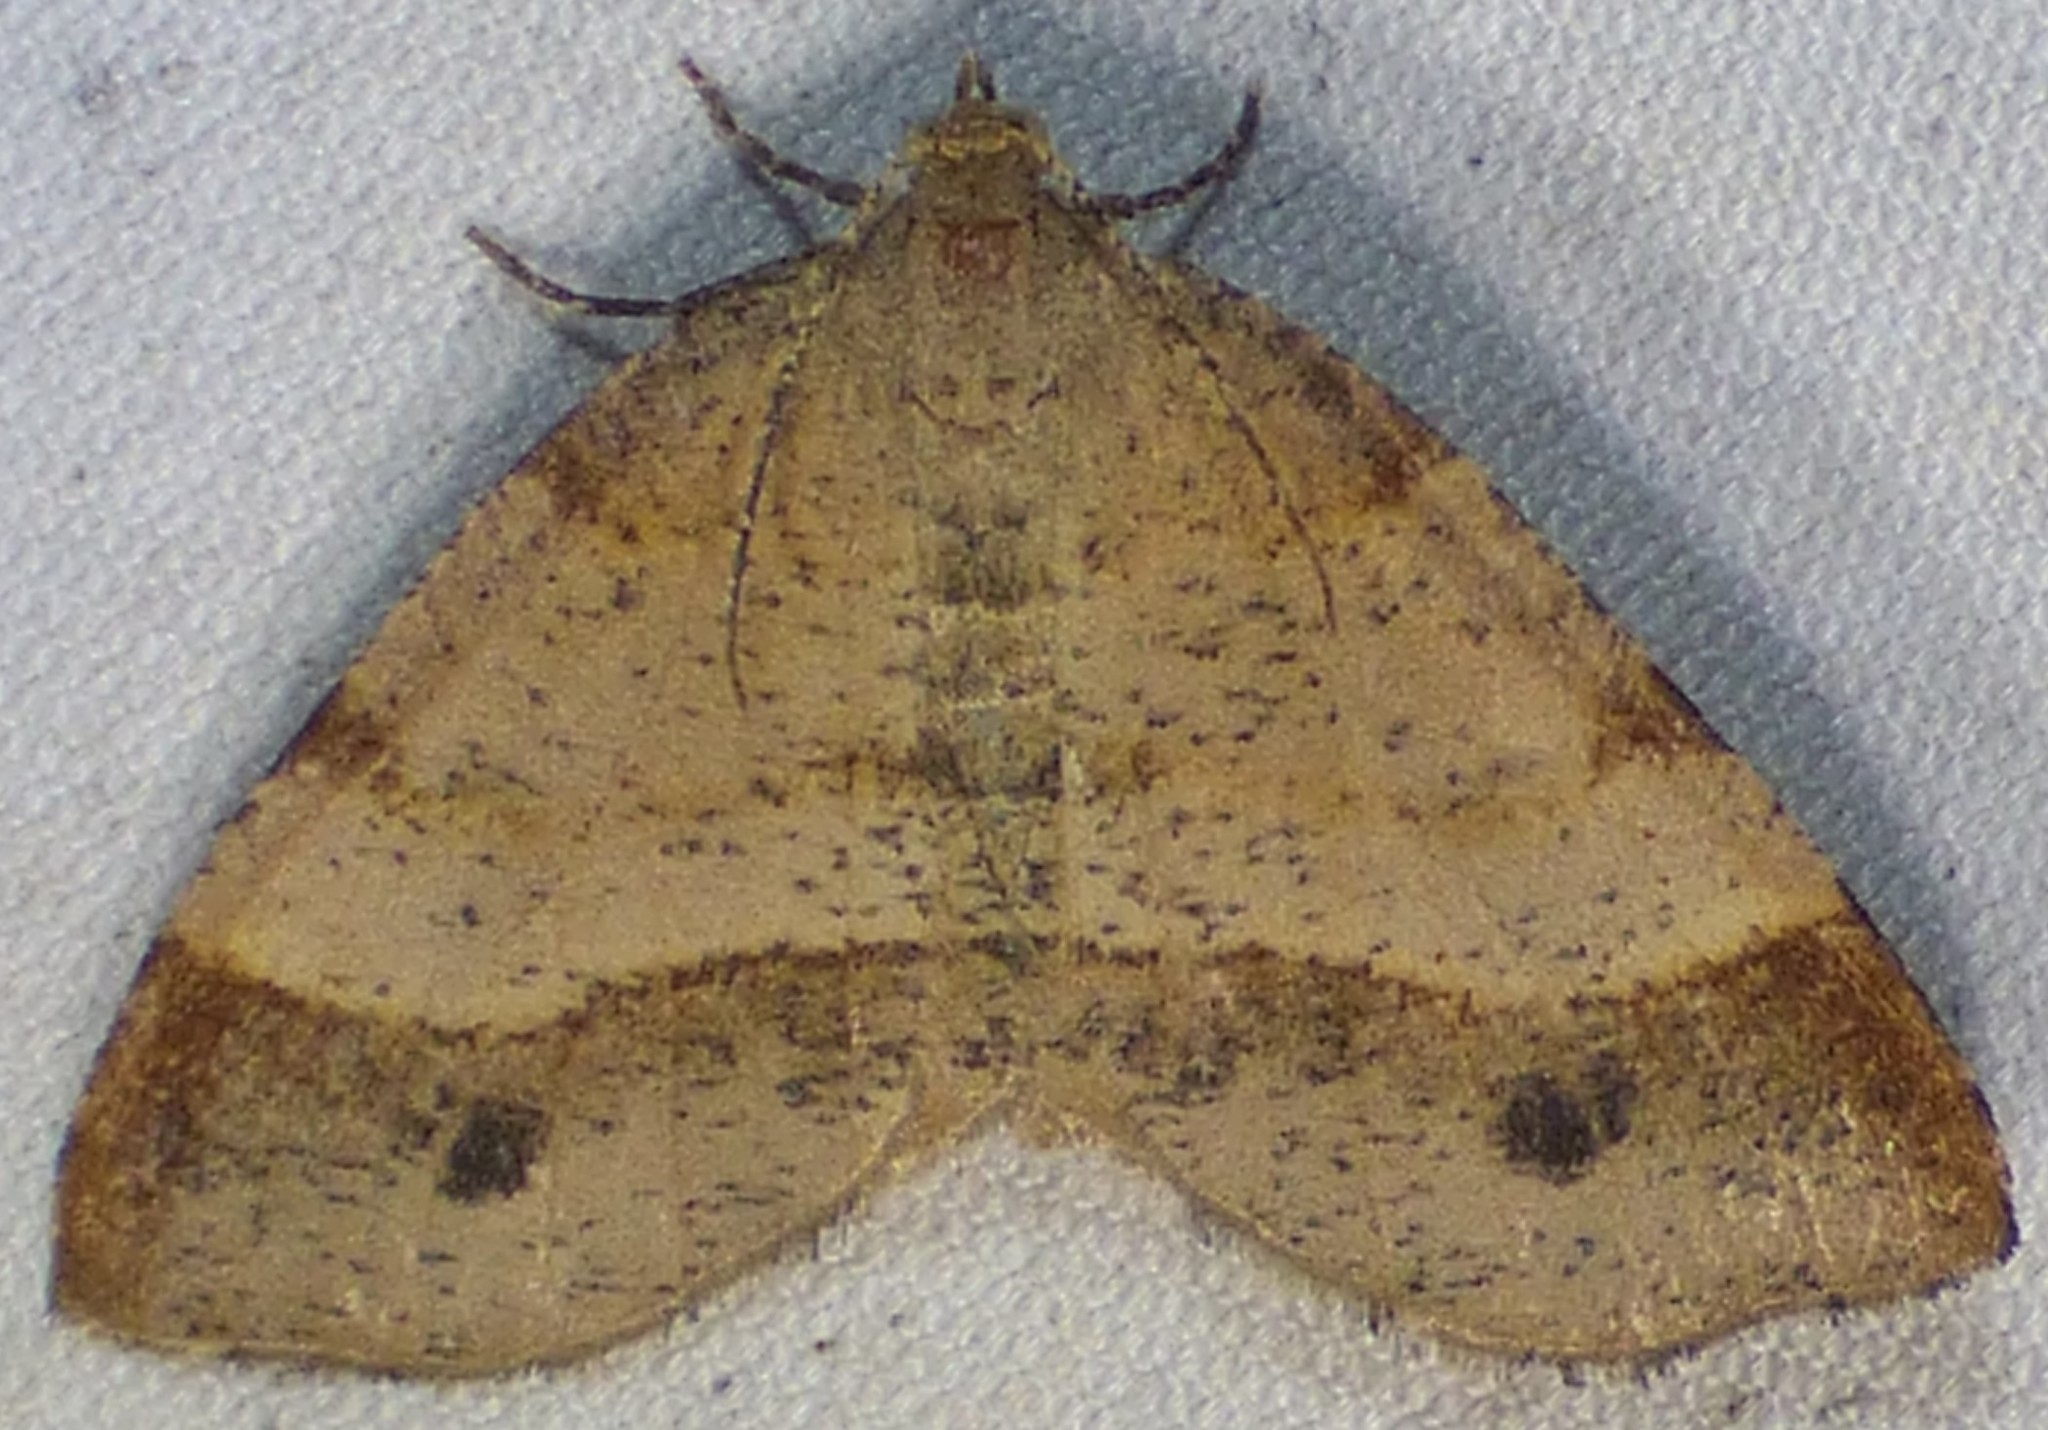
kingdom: Animalia
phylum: Arthropoda
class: Insecta
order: Lepidoptera
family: Geometridae
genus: Mellilla
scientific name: Mellilla xanthometata
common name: Orange wing moth
